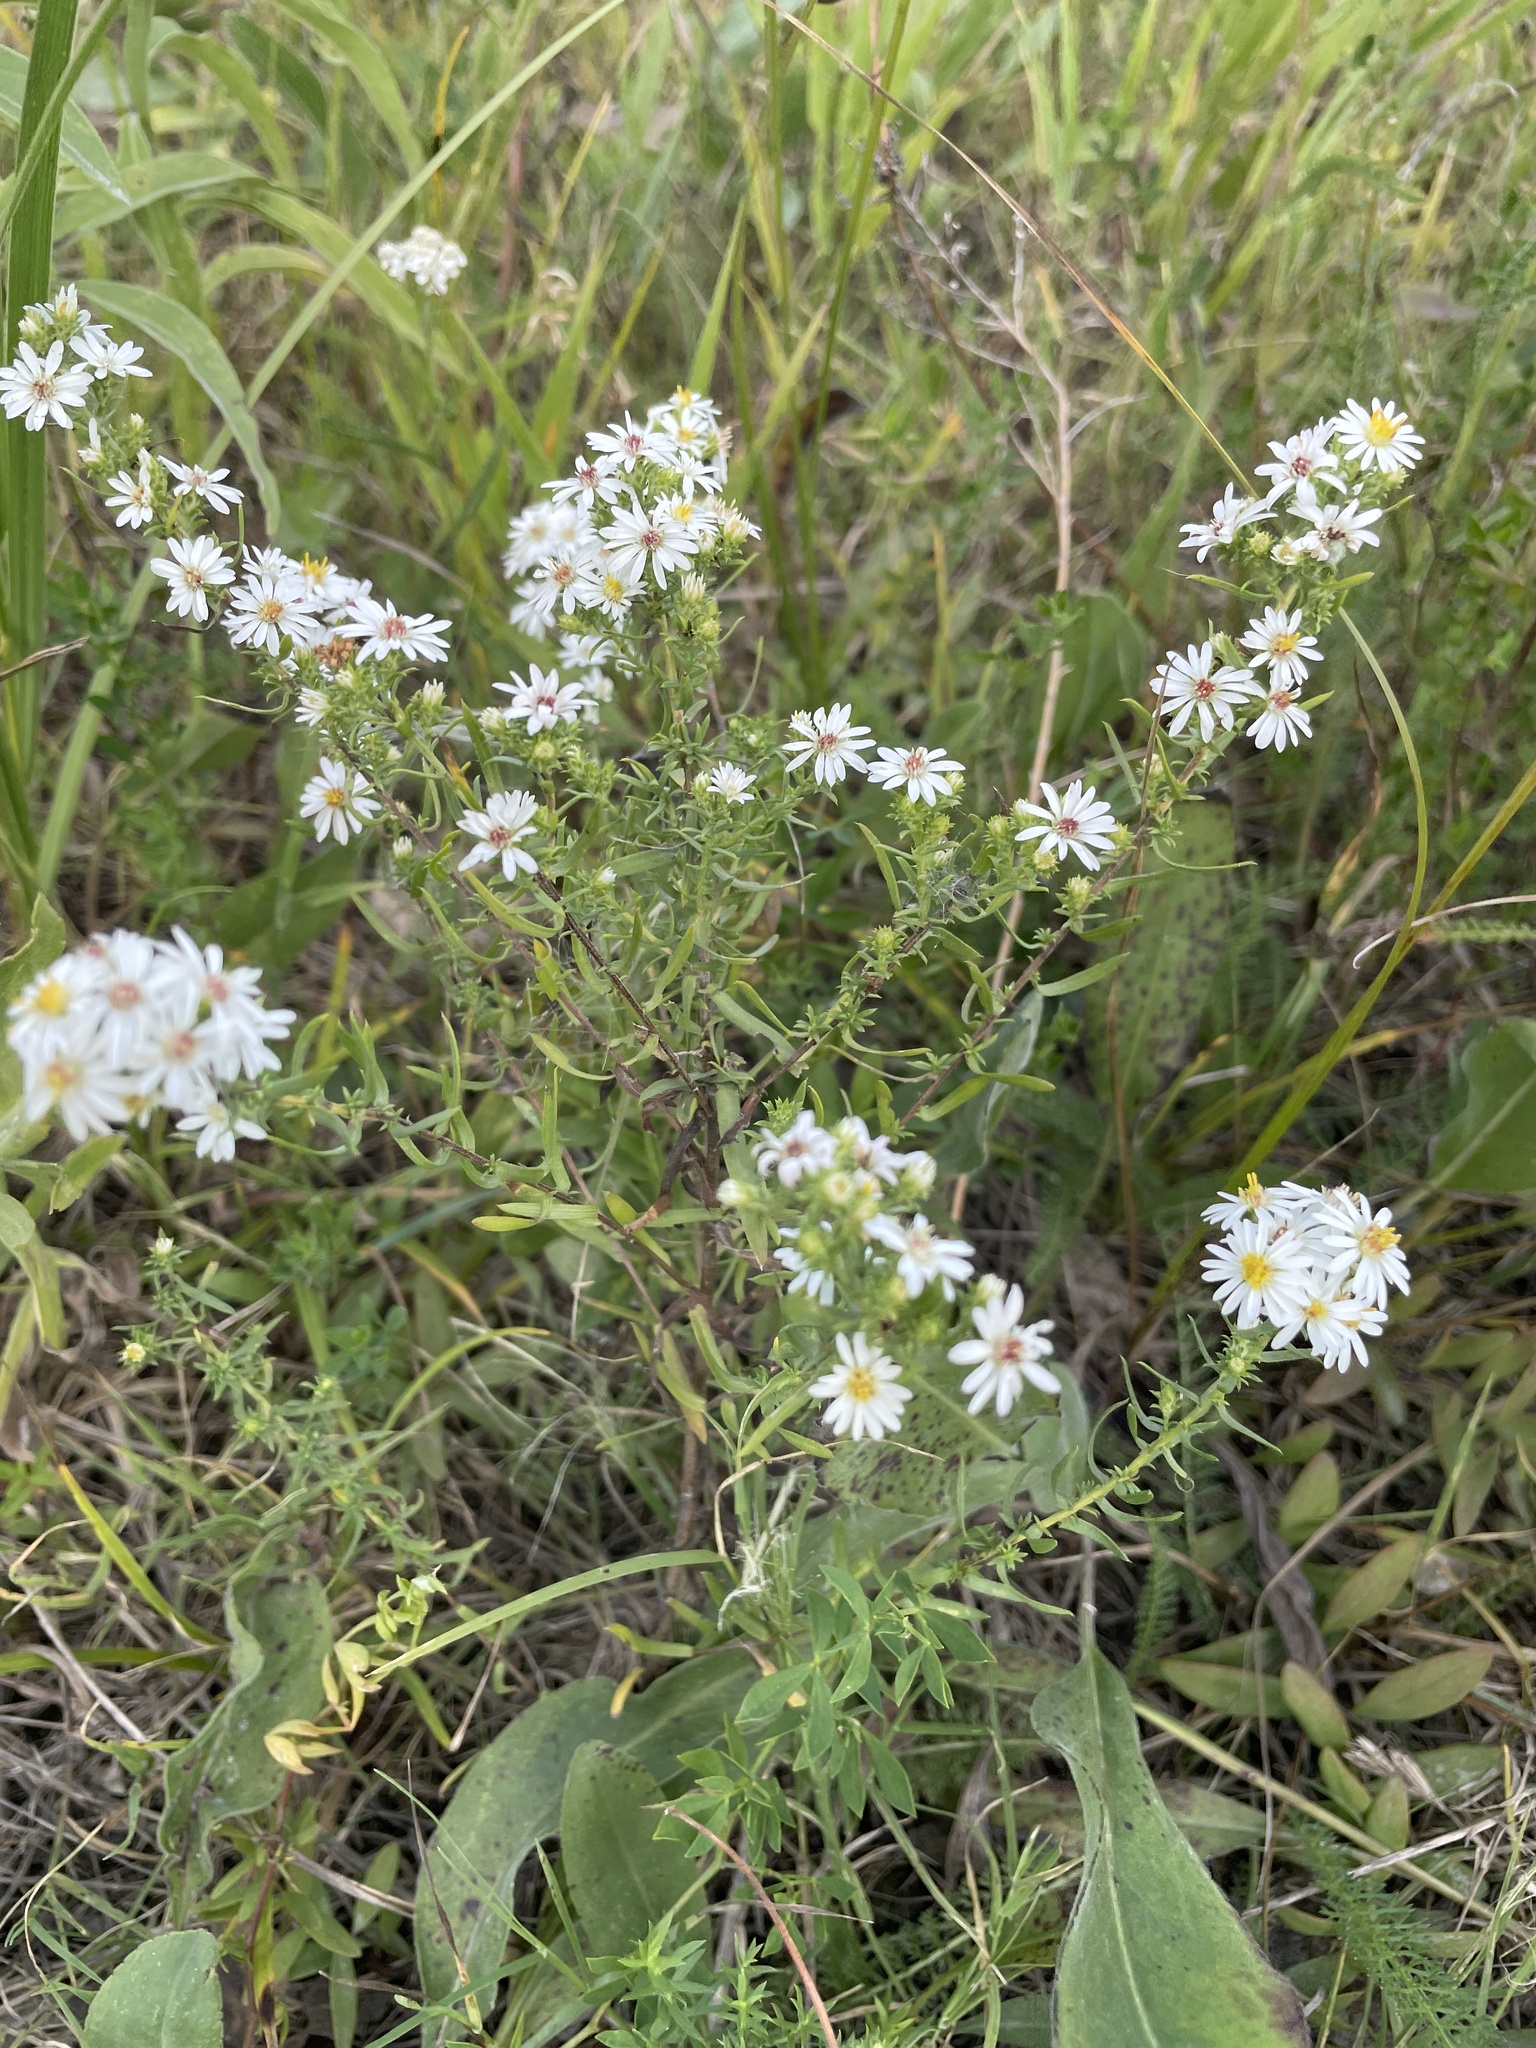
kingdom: Plantae
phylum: Tracheophyta
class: Magnoliopsida
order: Asterales
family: Asteraceae
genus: Symphyotrichum
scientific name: Symphyotrichum ericoides
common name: Heath aster
